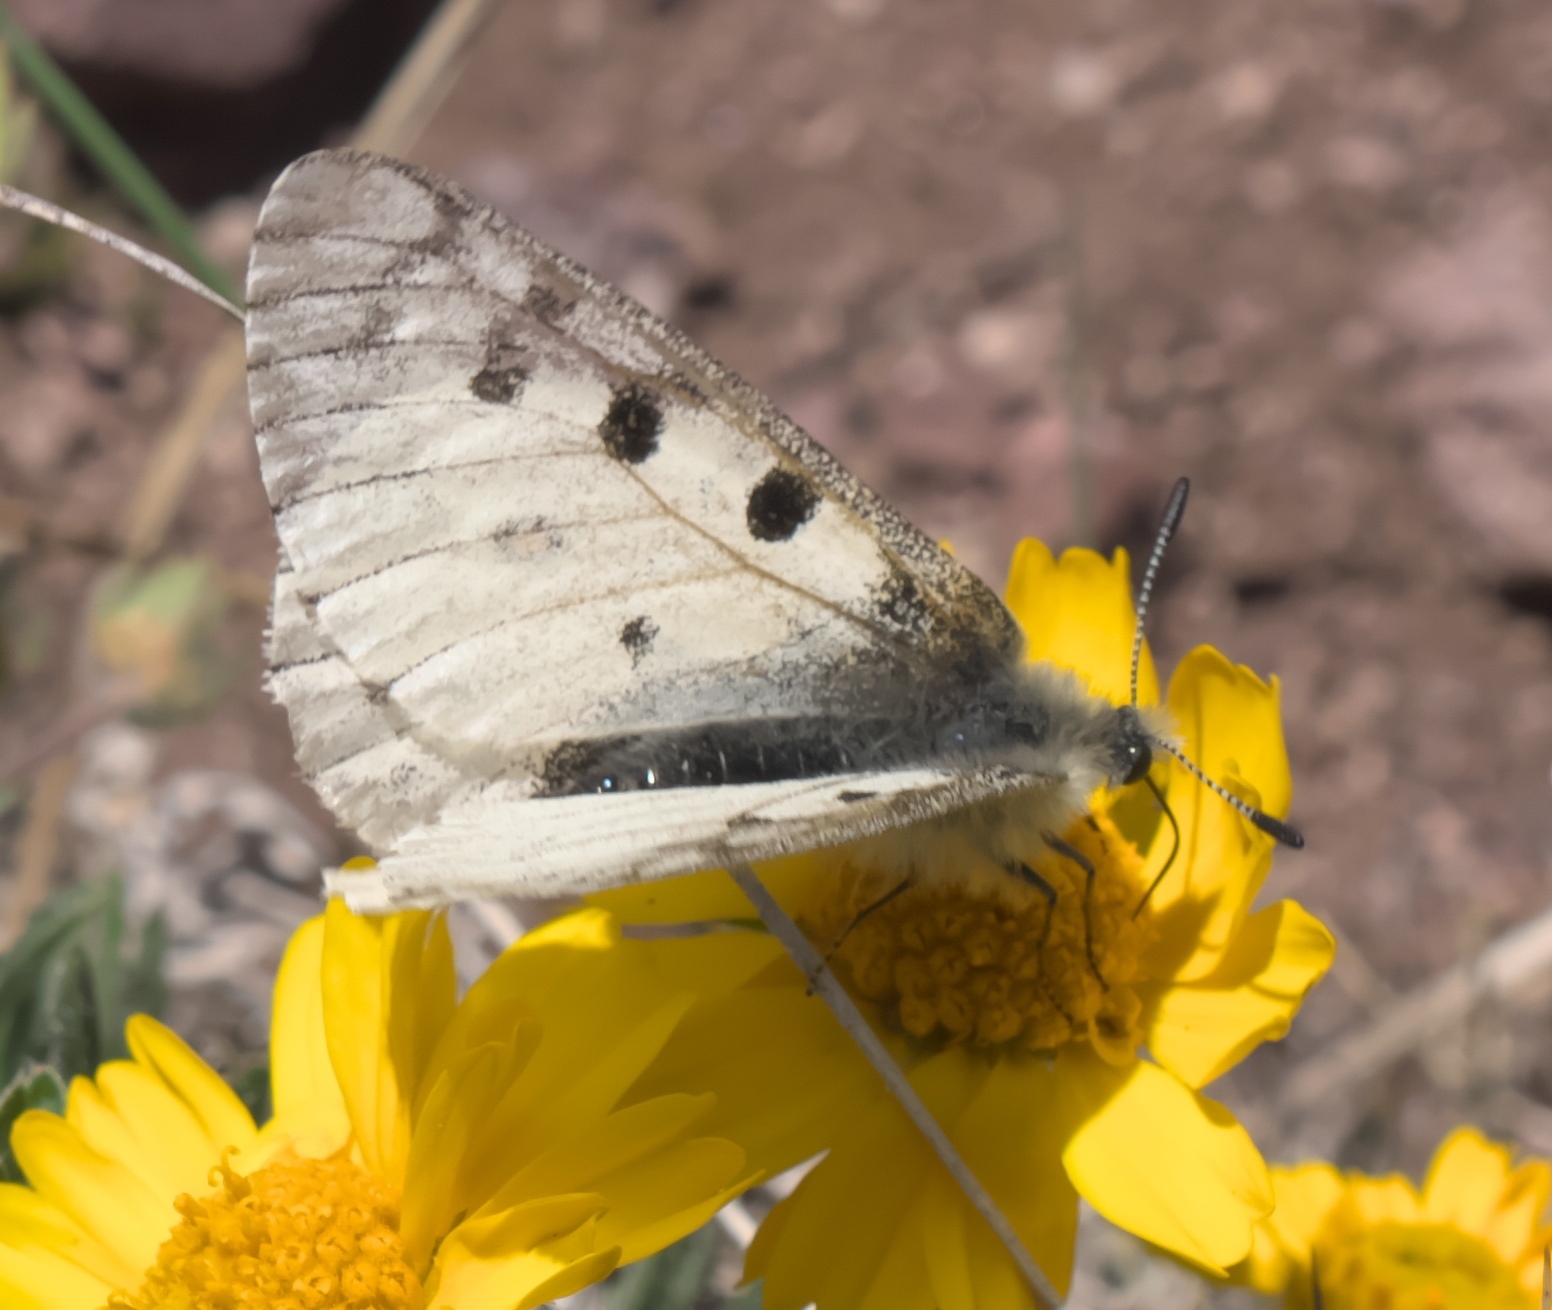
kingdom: Animalia
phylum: Arthropoda
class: Insecta
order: Lepidoptera
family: Papilionidae
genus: Parnassius
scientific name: Parnassius smintheus
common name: Mountain parnassian
